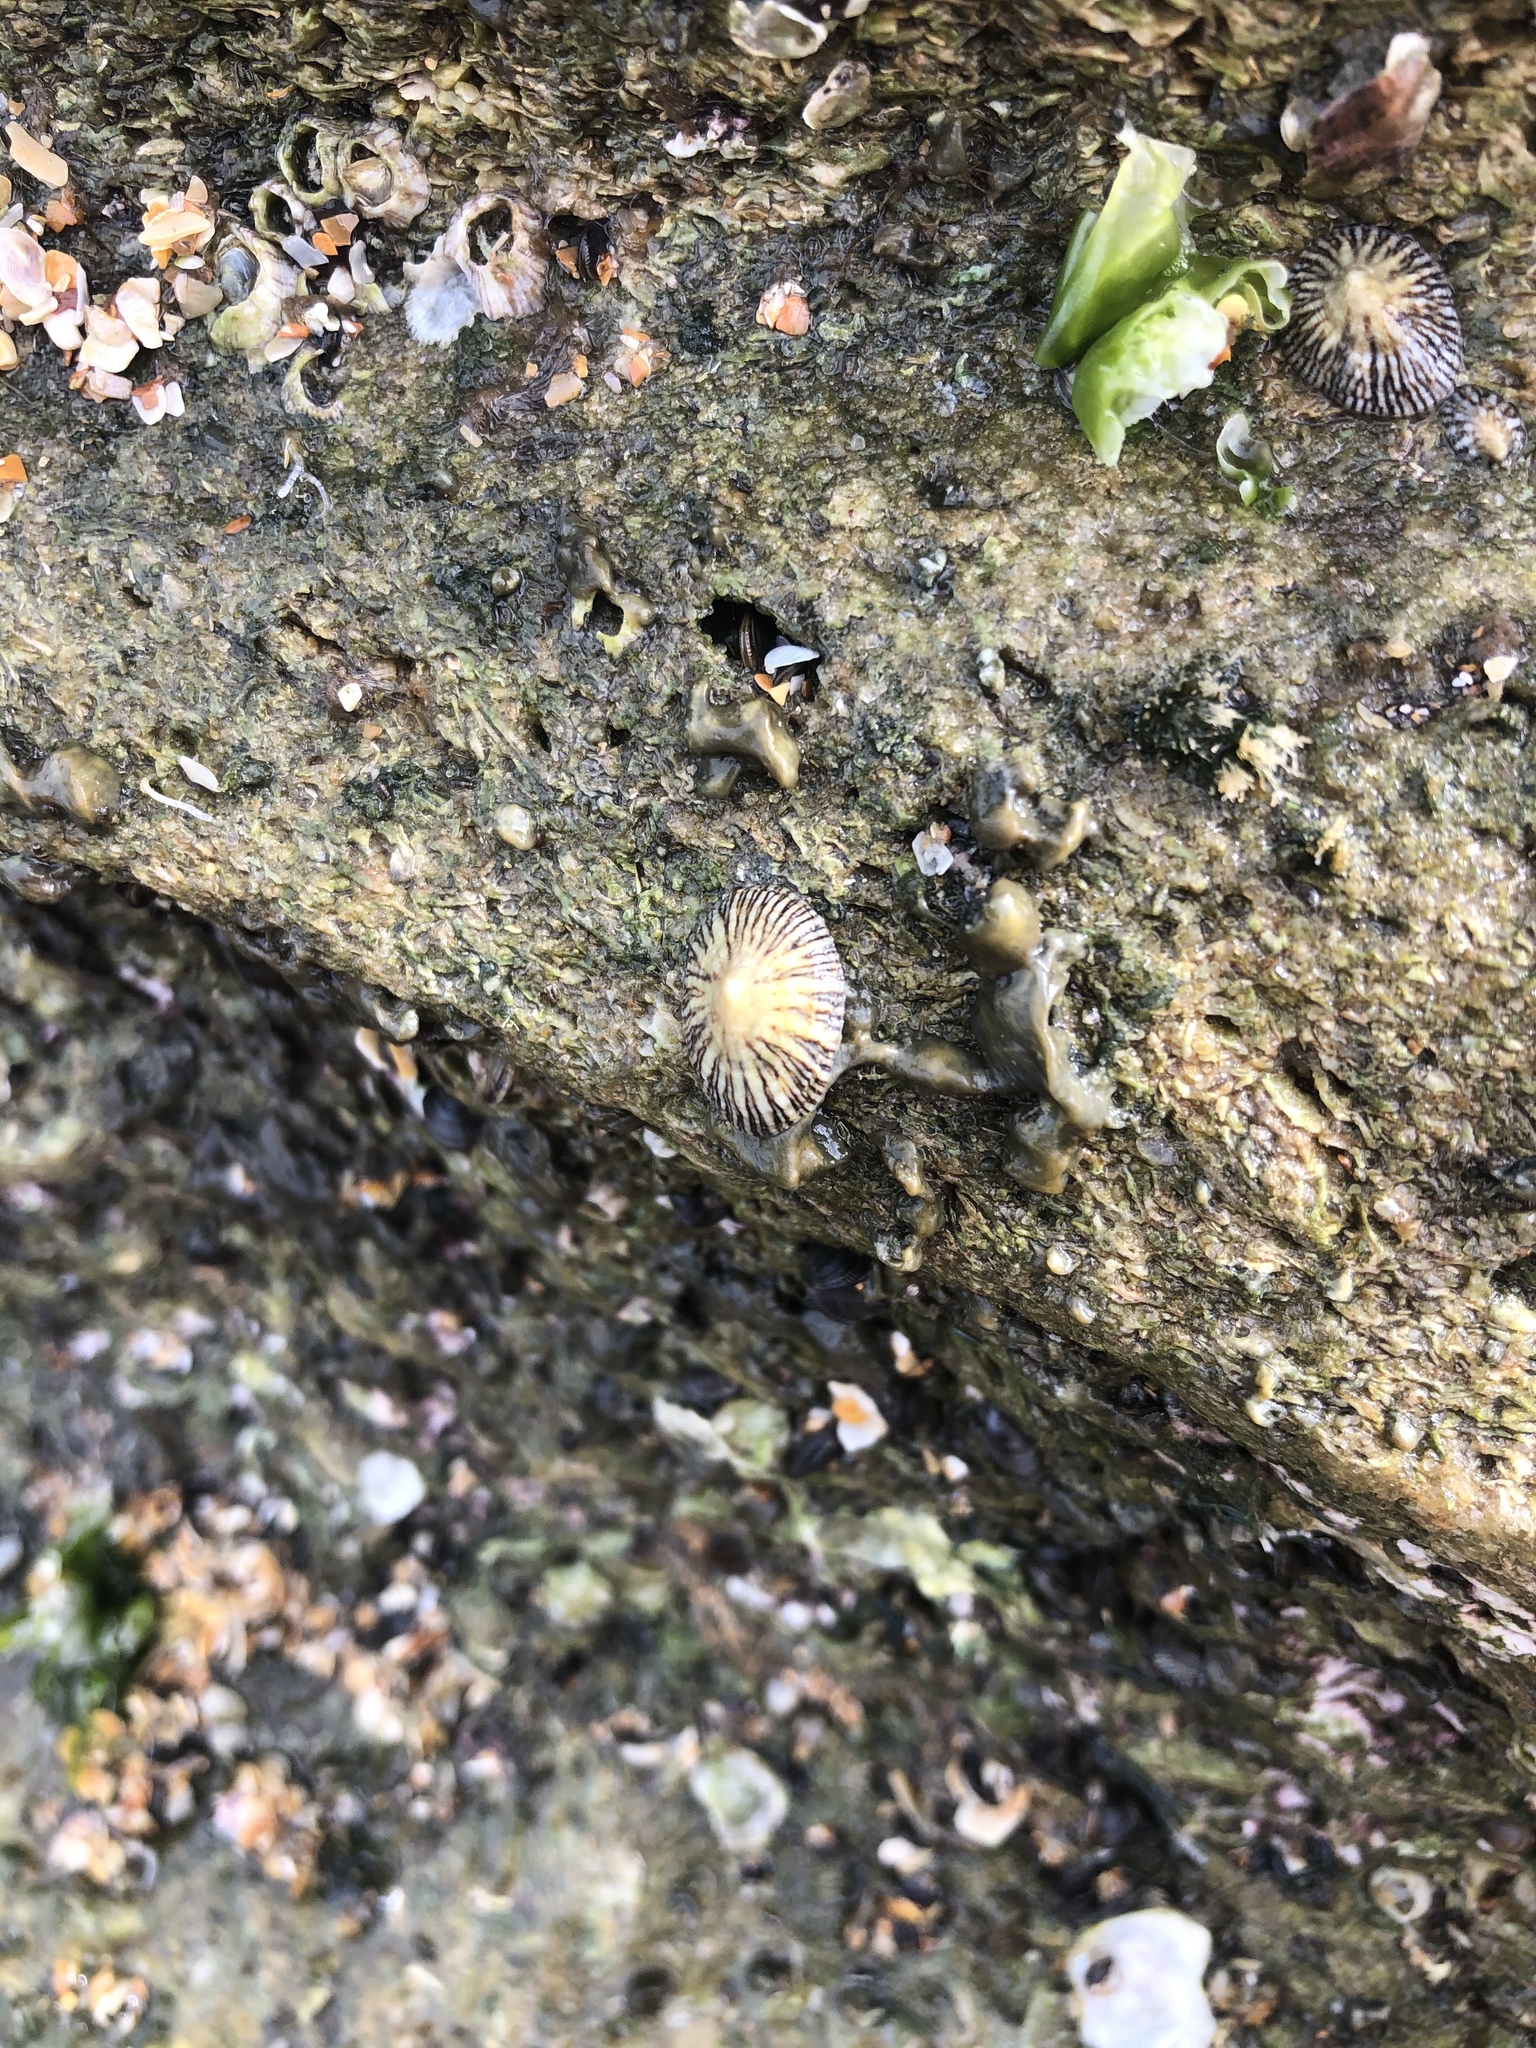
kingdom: Animalia
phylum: Mollusca
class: Gastropoda
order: Siphonariida
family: Siphonariidae
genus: Siphonaria
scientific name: Siphonaria naufragum
